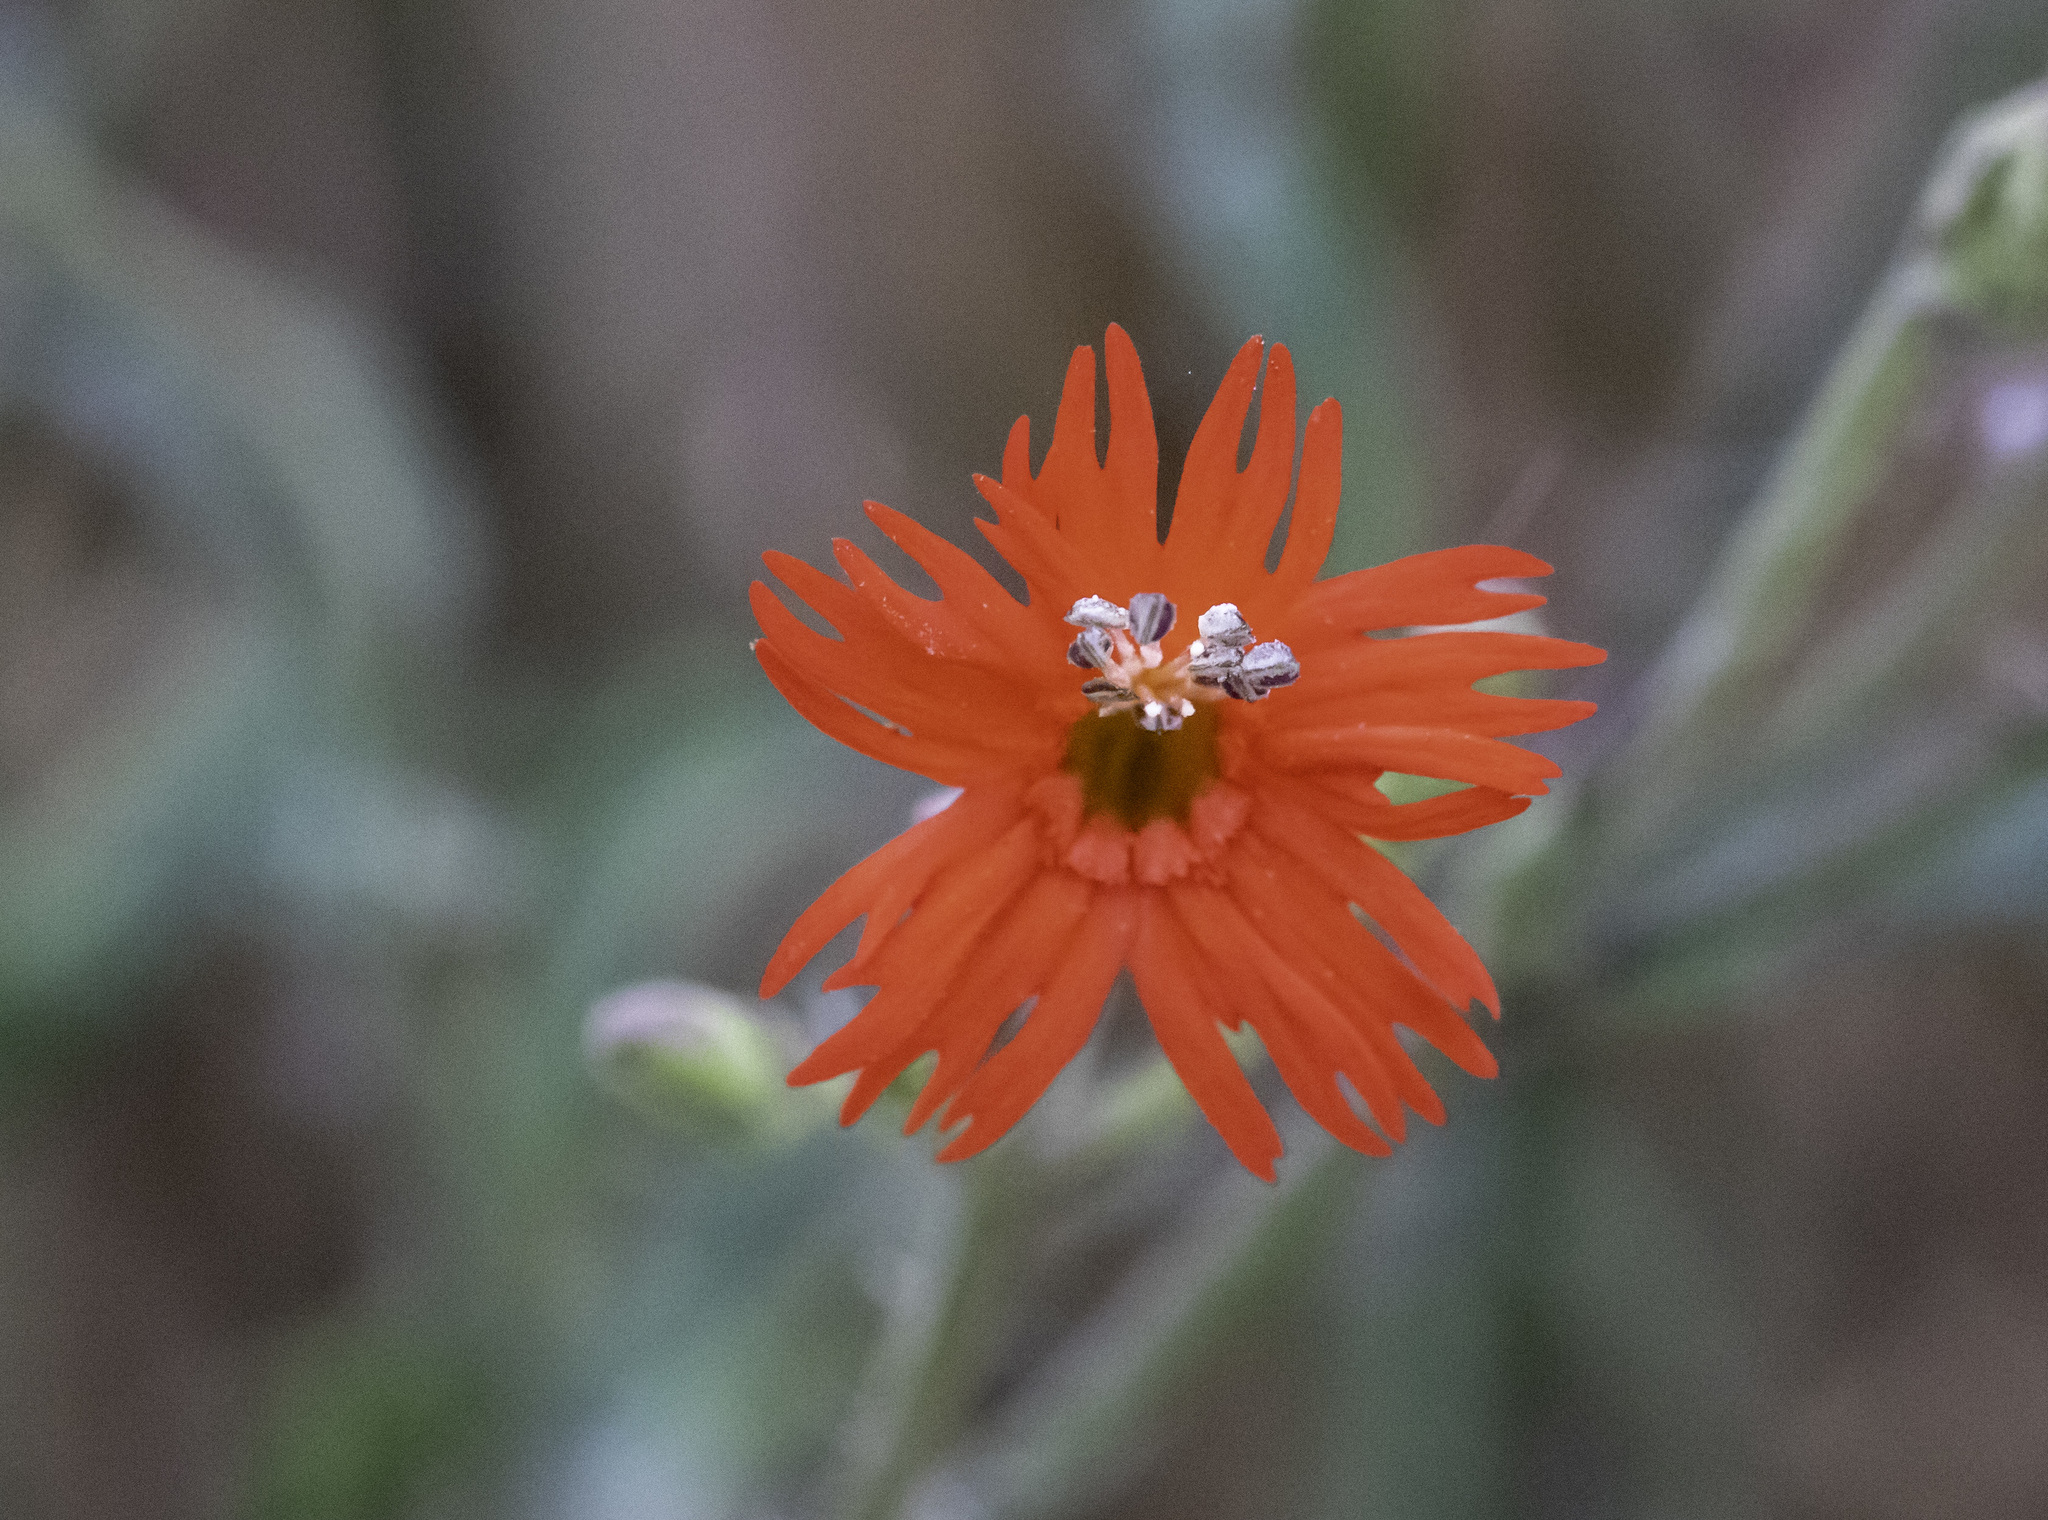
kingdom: Plantae
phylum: Tracheophyta
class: Magnoliopsida
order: Caryophyllales
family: Caryophyllaceae
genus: Silene
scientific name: Silene laciniata
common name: Indian-pink
